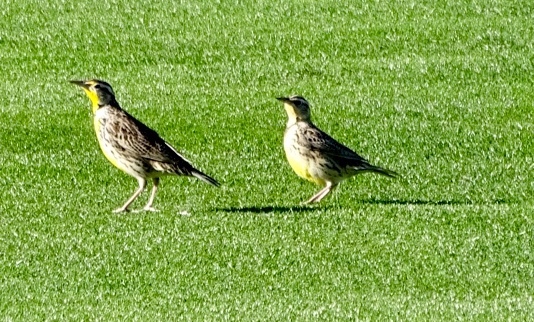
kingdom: Animalia
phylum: Chordata
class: Aves
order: Passeriformes
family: Icteridae
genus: Sturnella
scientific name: Sturnella neglecta
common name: Western meadowlark
